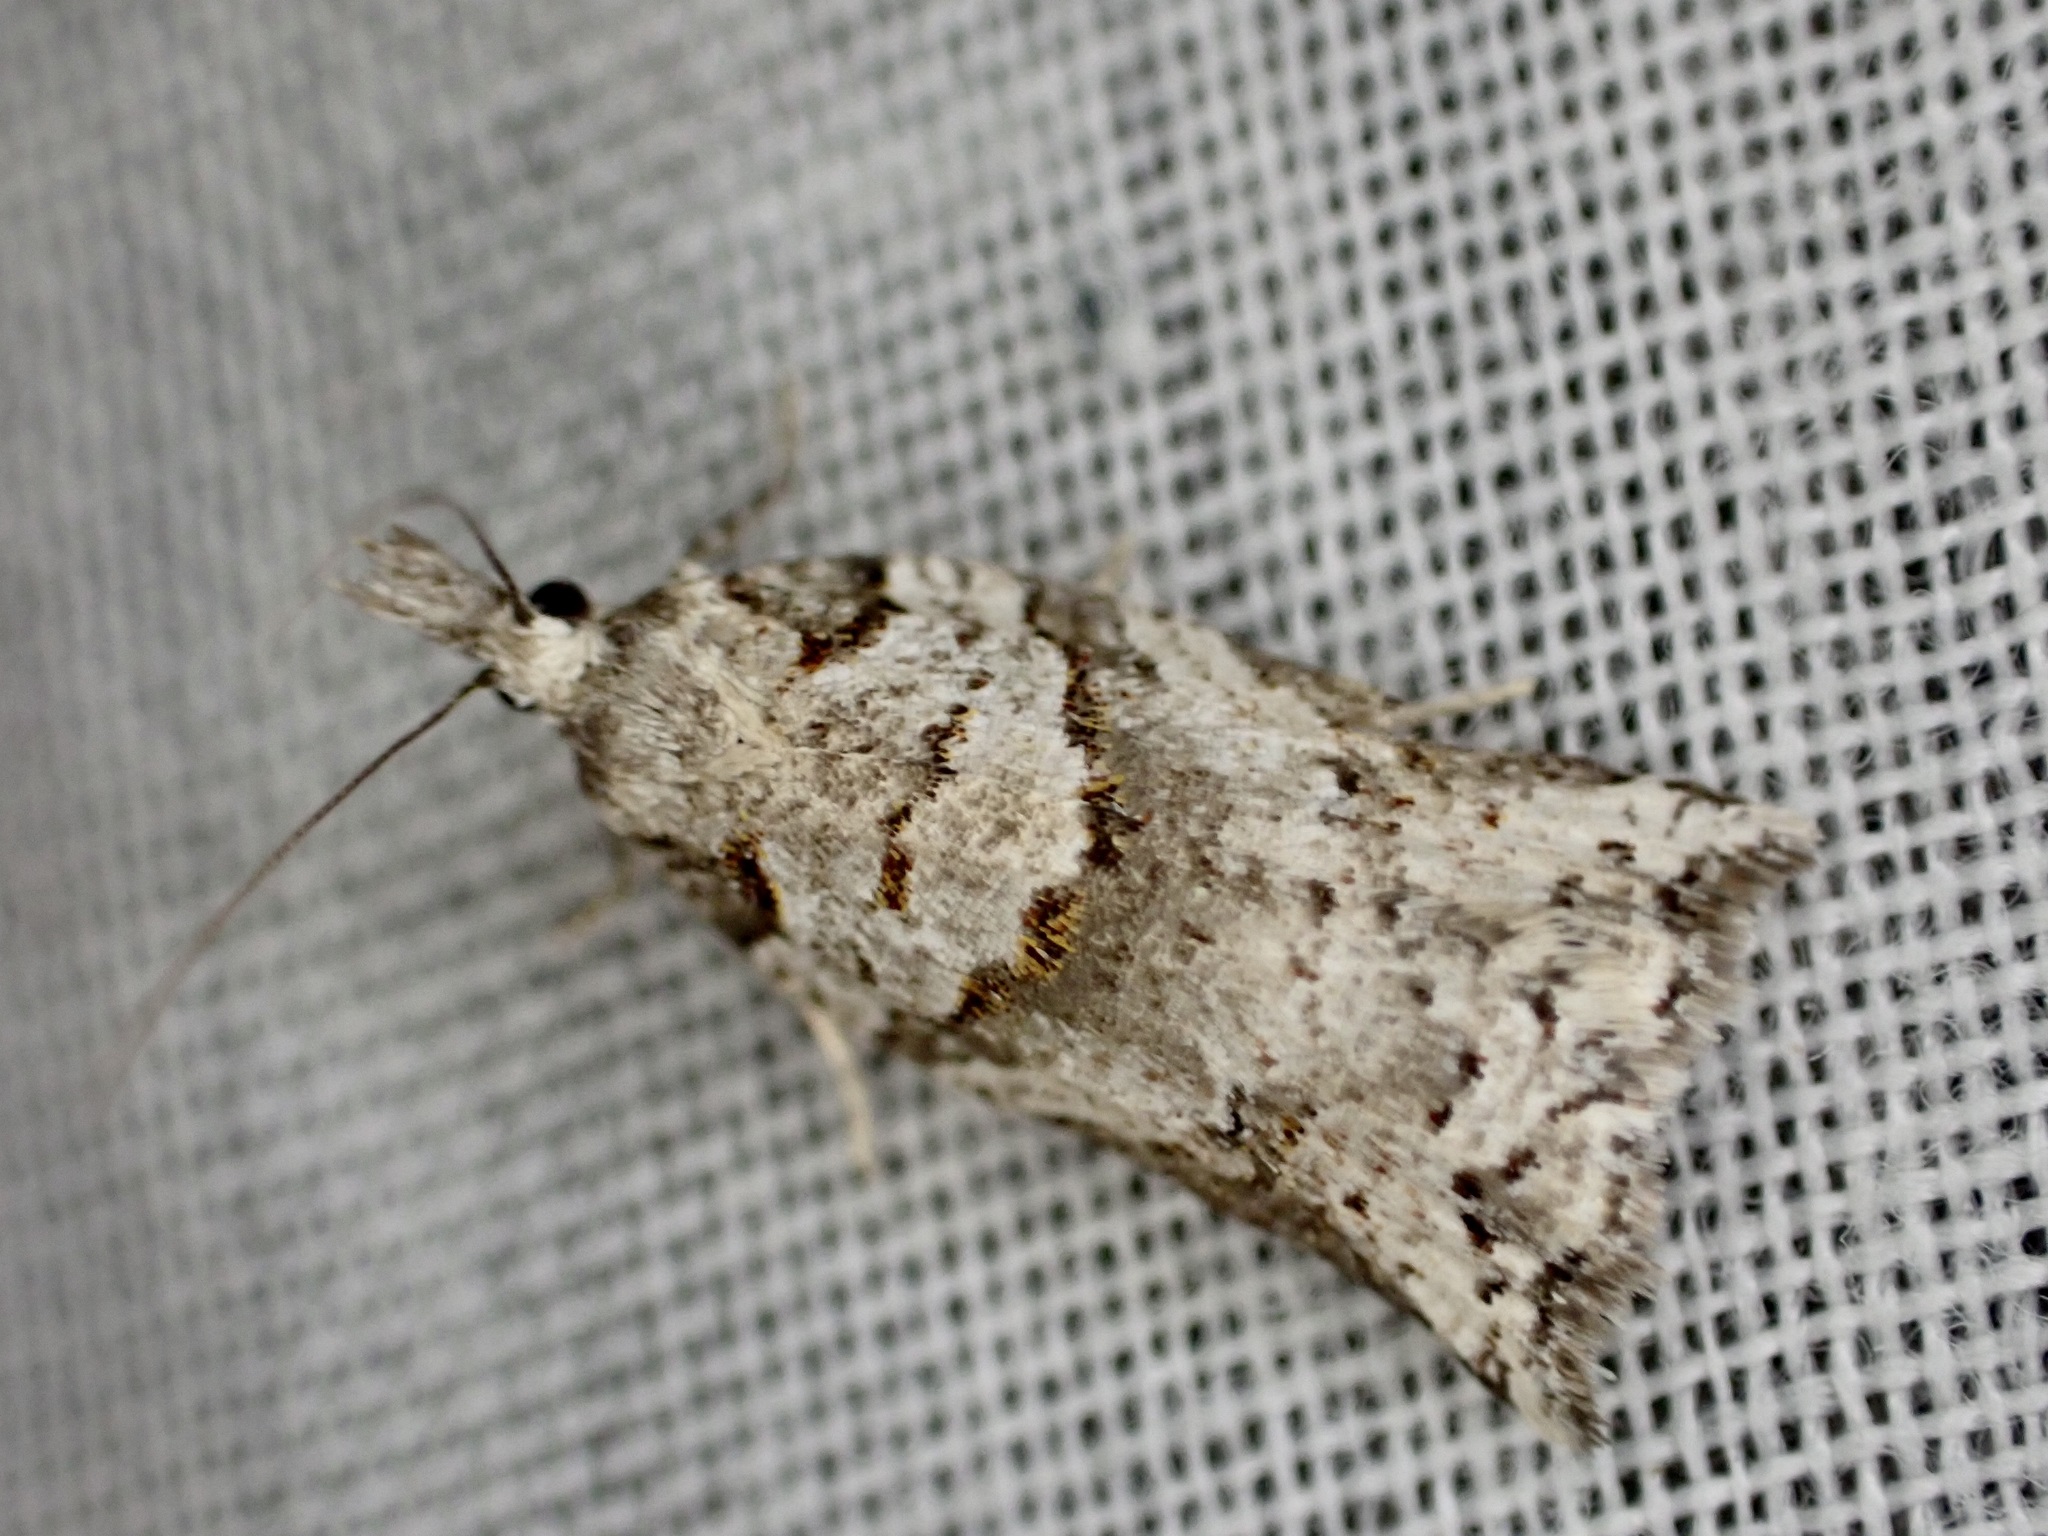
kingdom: Animalia
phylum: Arthropoda
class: Insecta
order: Lepidoptera
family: Tortricidae
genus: Harmologa
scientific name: Harmologa amplexana
